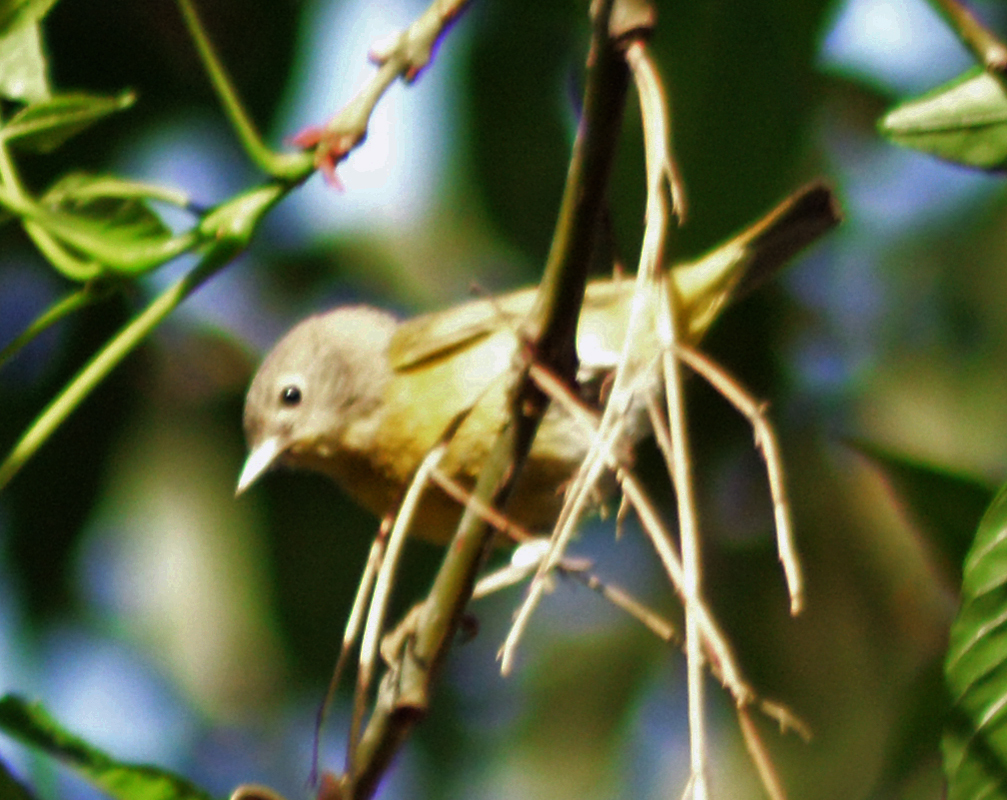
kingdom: Animalia
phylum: Chordata
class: Aves
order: Passeriformes
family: Parulidae
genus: Leiothlypis
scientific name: Leiothlypis ruficapilla
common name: Nashville warbler
